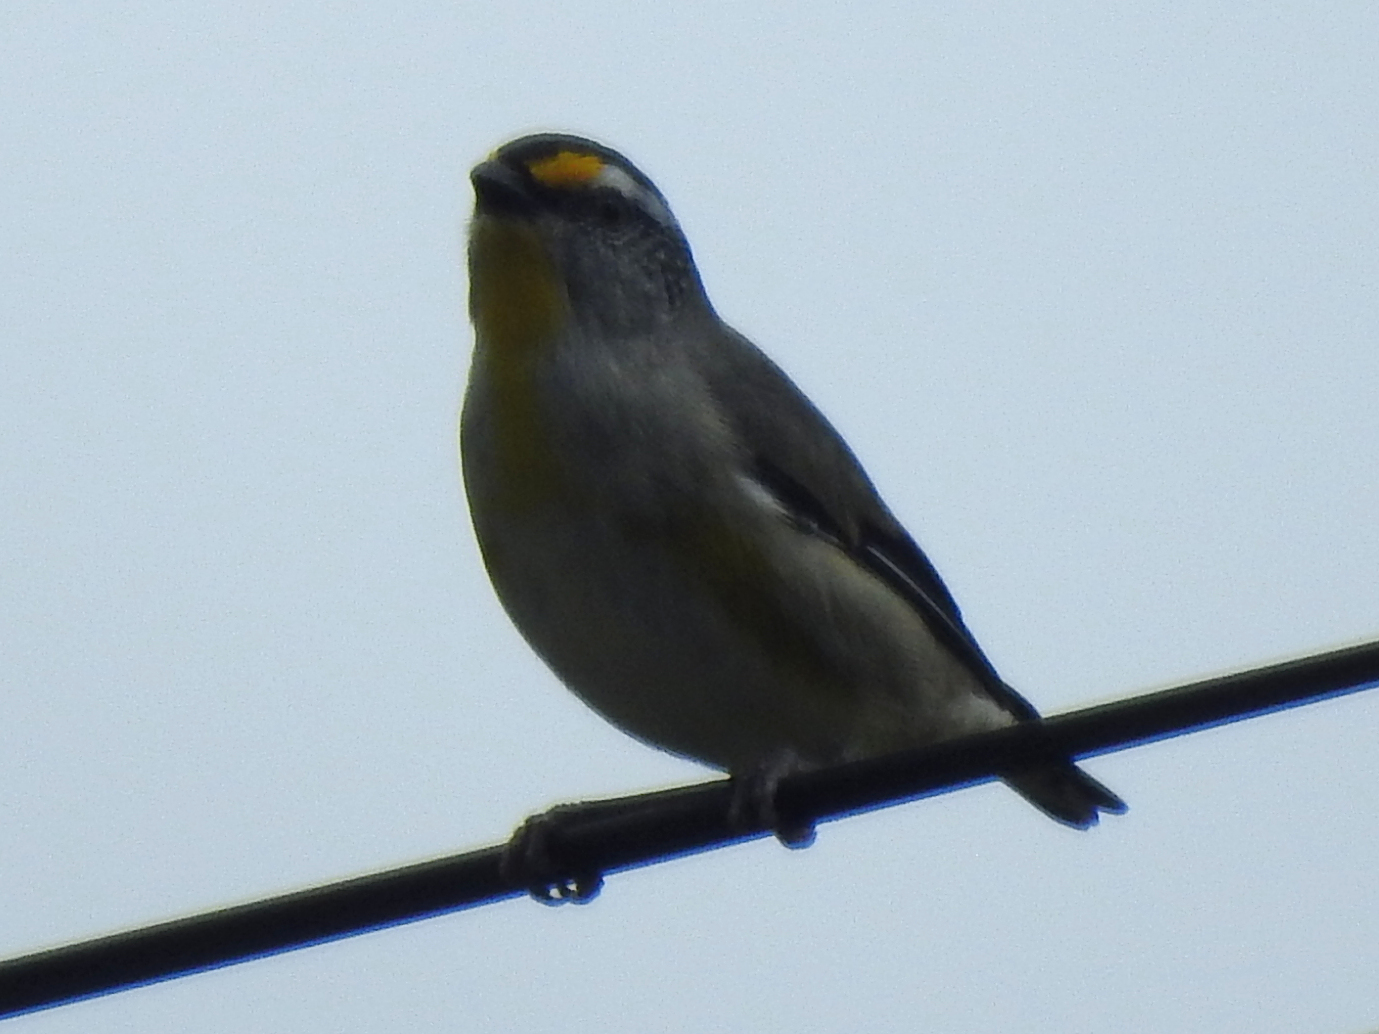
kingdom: Animalia
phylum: Chordata
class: Aves
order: Passeriformes
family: Pardalotidae
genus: Pardalotus
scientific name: Pardalotus striatus
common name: Striated pardalote
